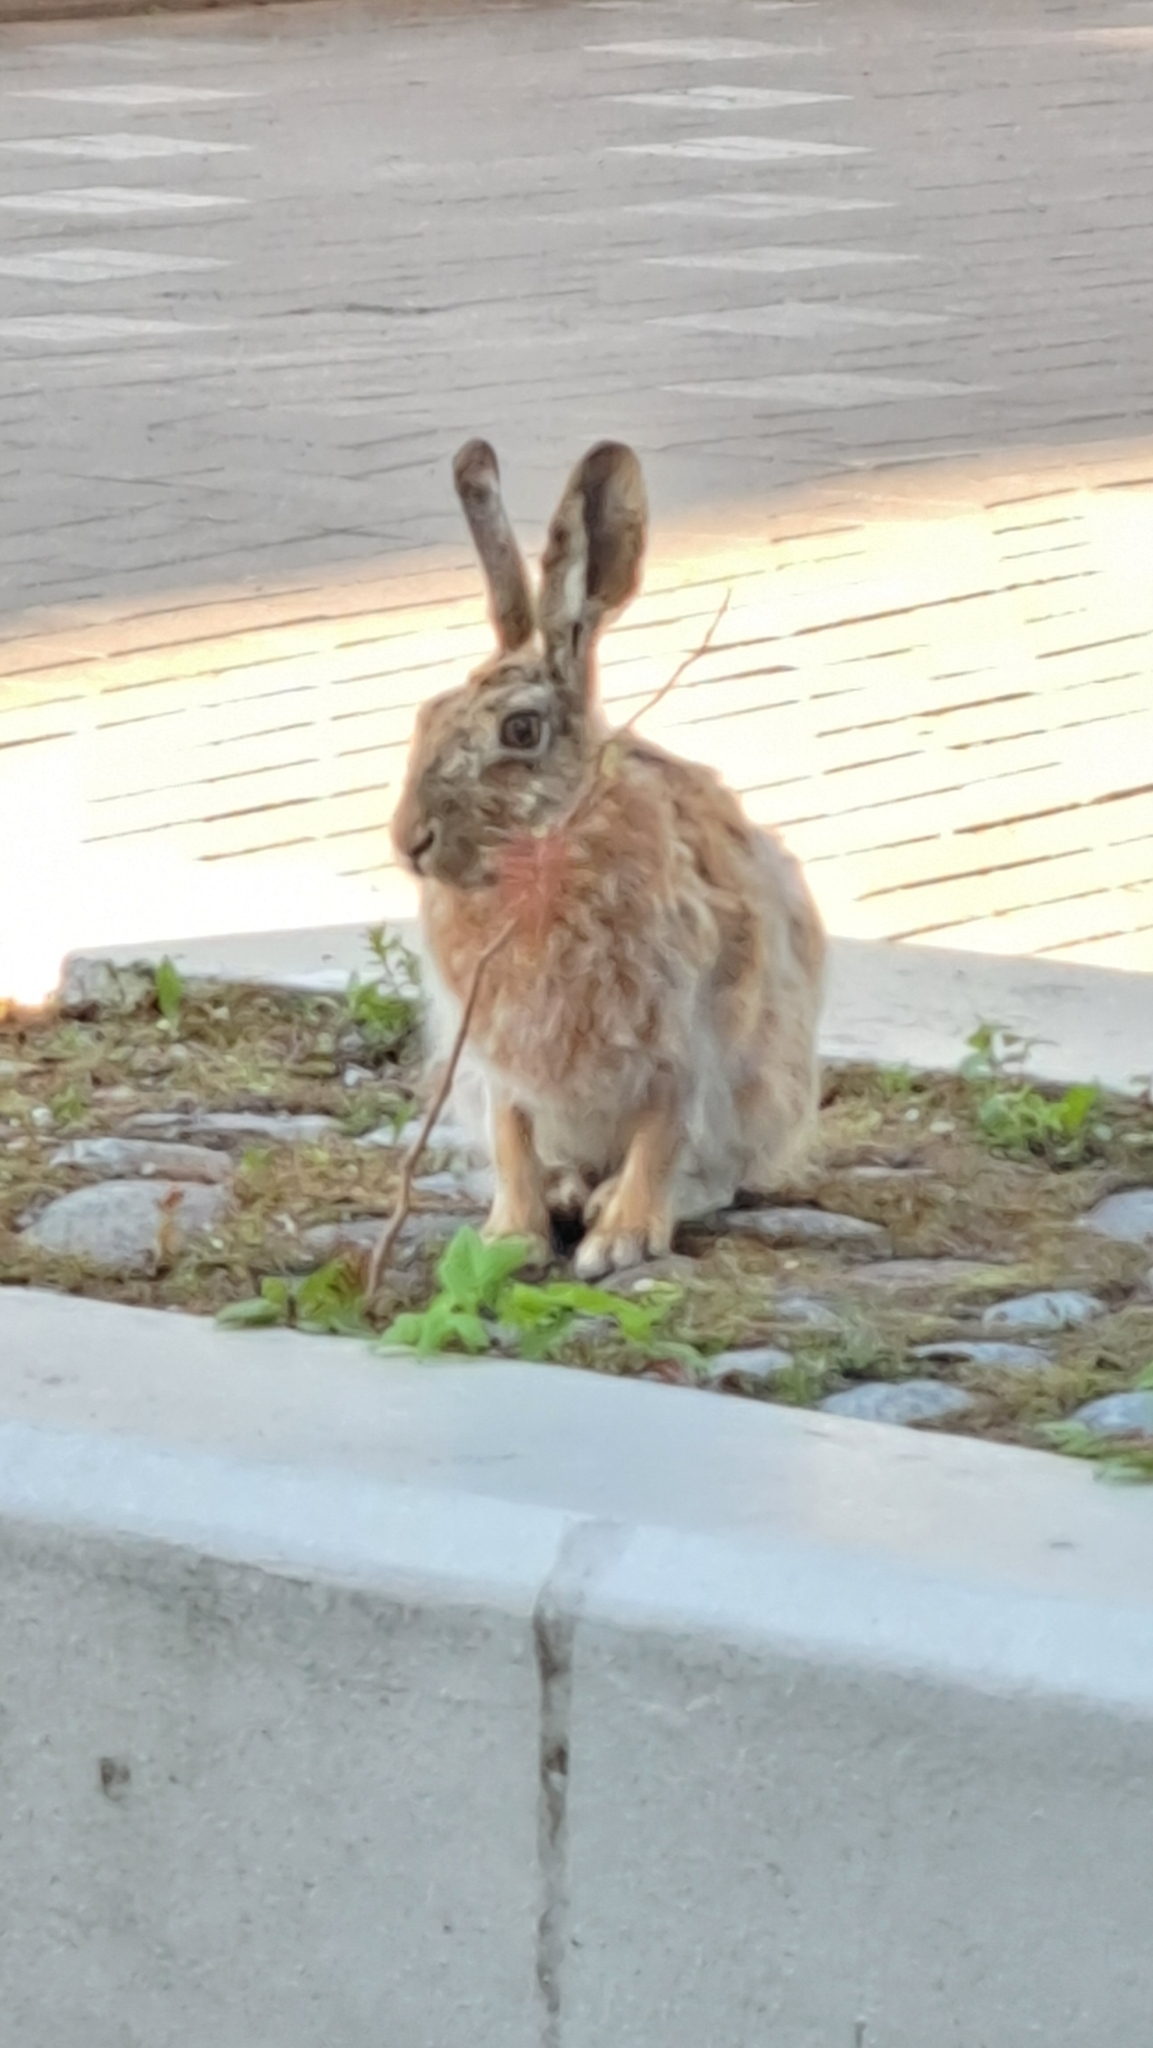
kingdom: Animalia
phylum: Chordata
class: Mammalia
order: Lagomorpha
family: Leporidae
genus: Lepus
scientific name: Lepus europaeus
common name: European hare
